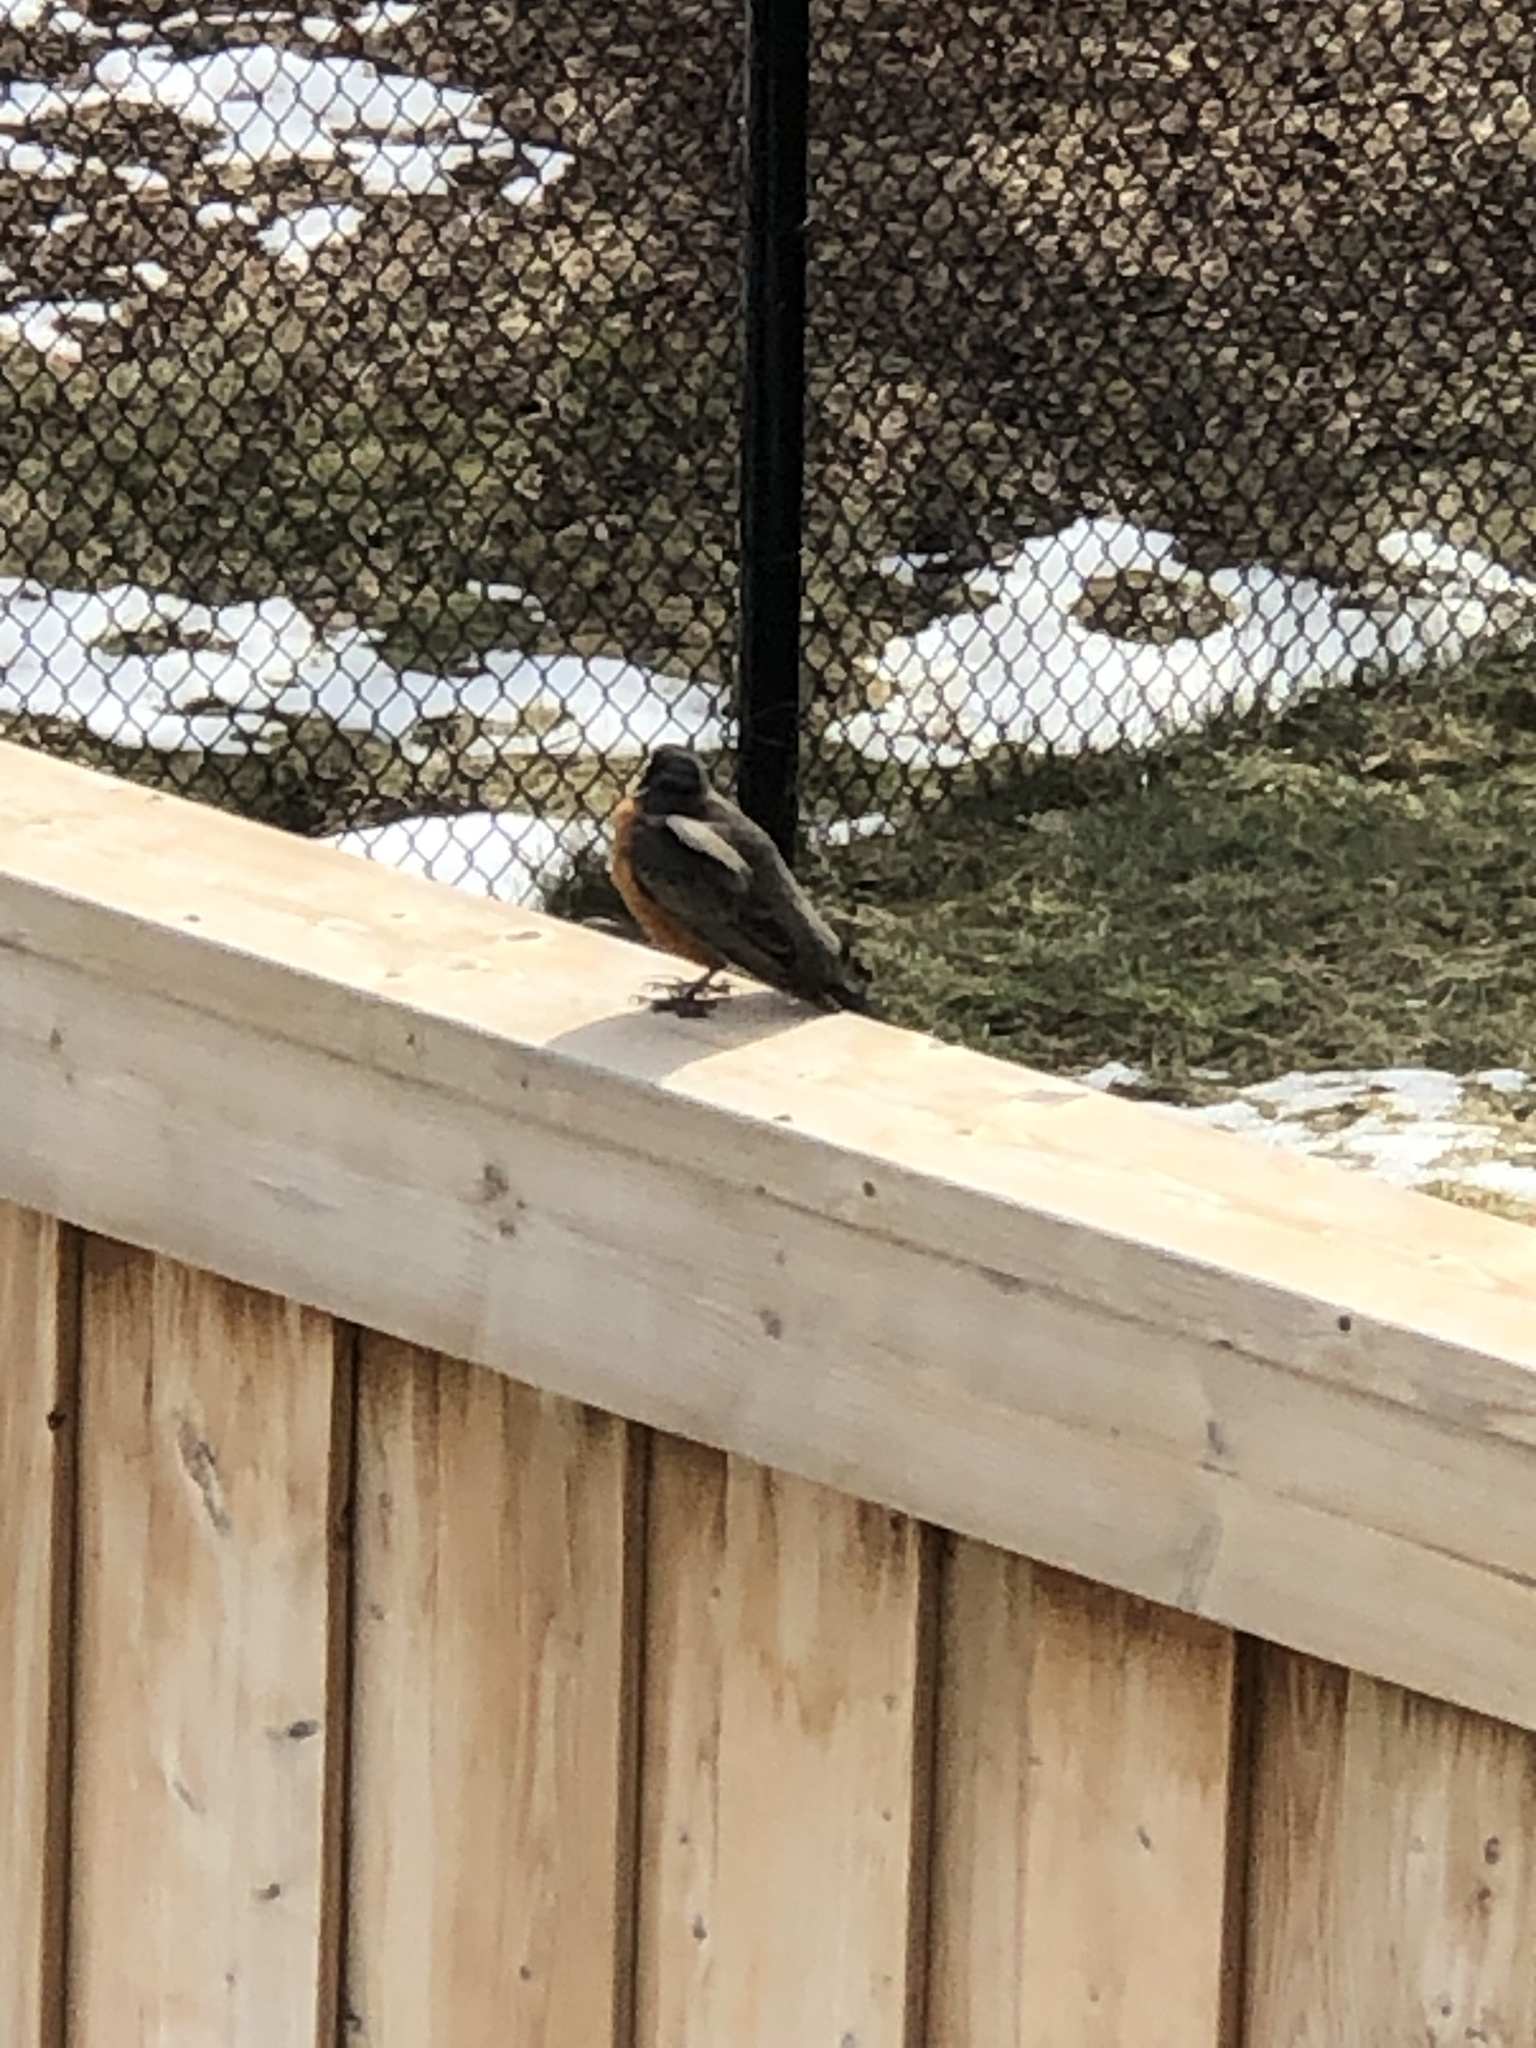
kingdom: Animalia
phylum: Chordata
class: Aves
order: Passeriformes
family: Turdidae
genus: Turdus
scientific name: Turdus migratorius
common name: American robin
